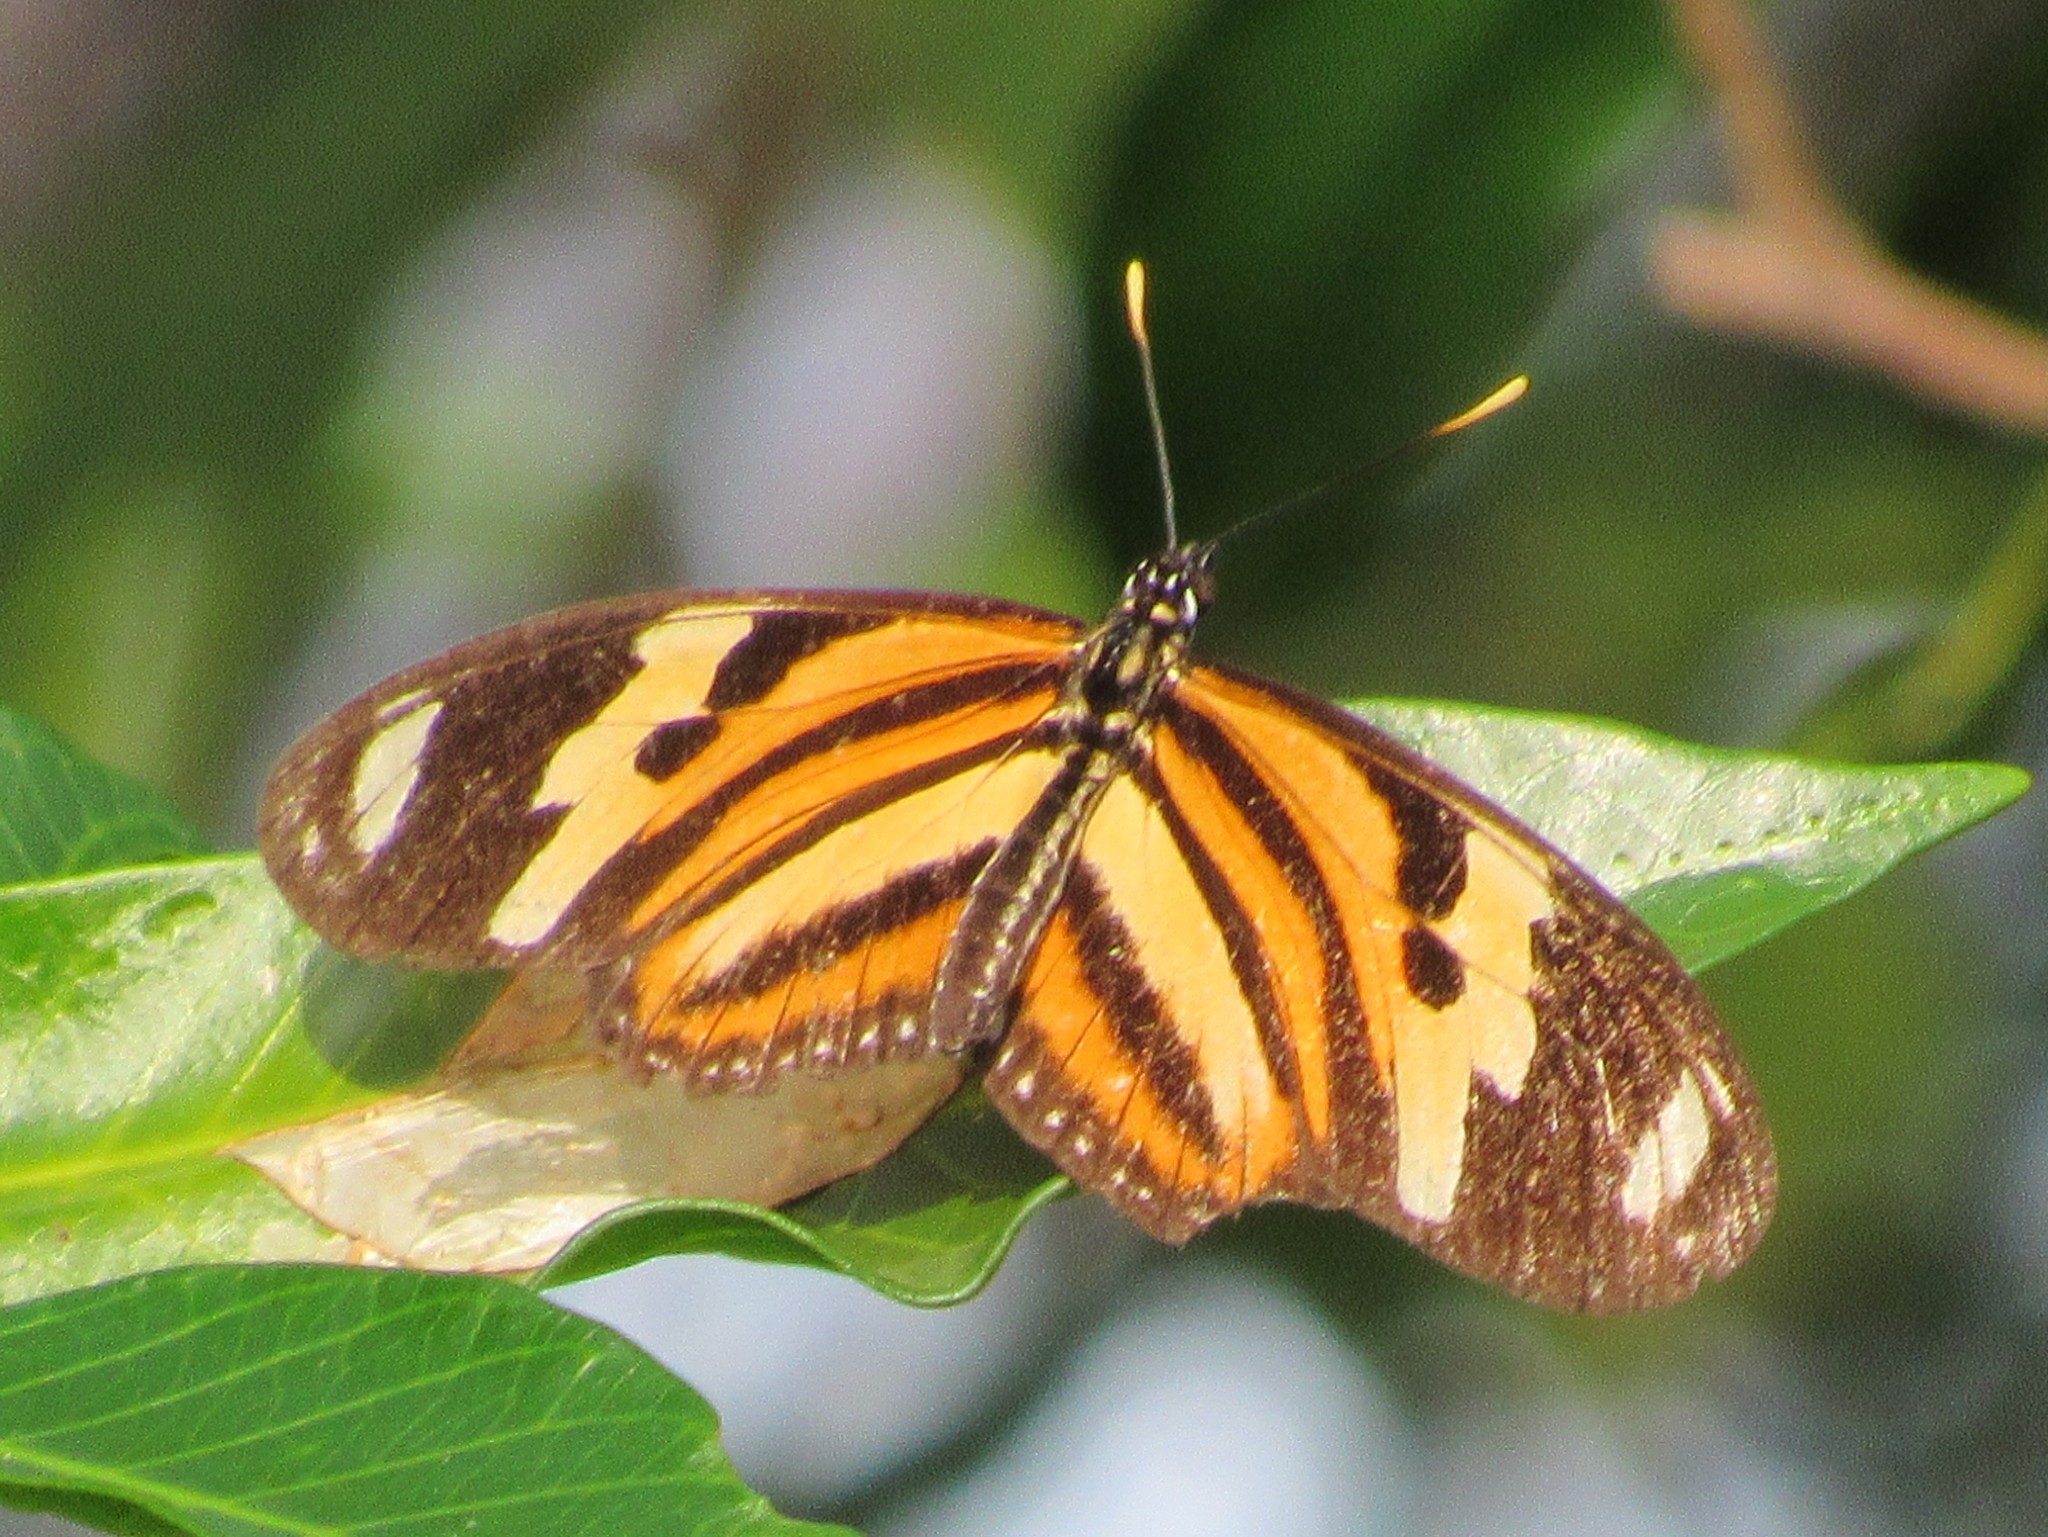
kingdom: Animalia
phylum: Arthropoda
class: Insecta
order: Lepidoptera
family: Nymphalidae
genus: Eueides
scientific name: Eueides isabella
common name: Isabella's longwing
